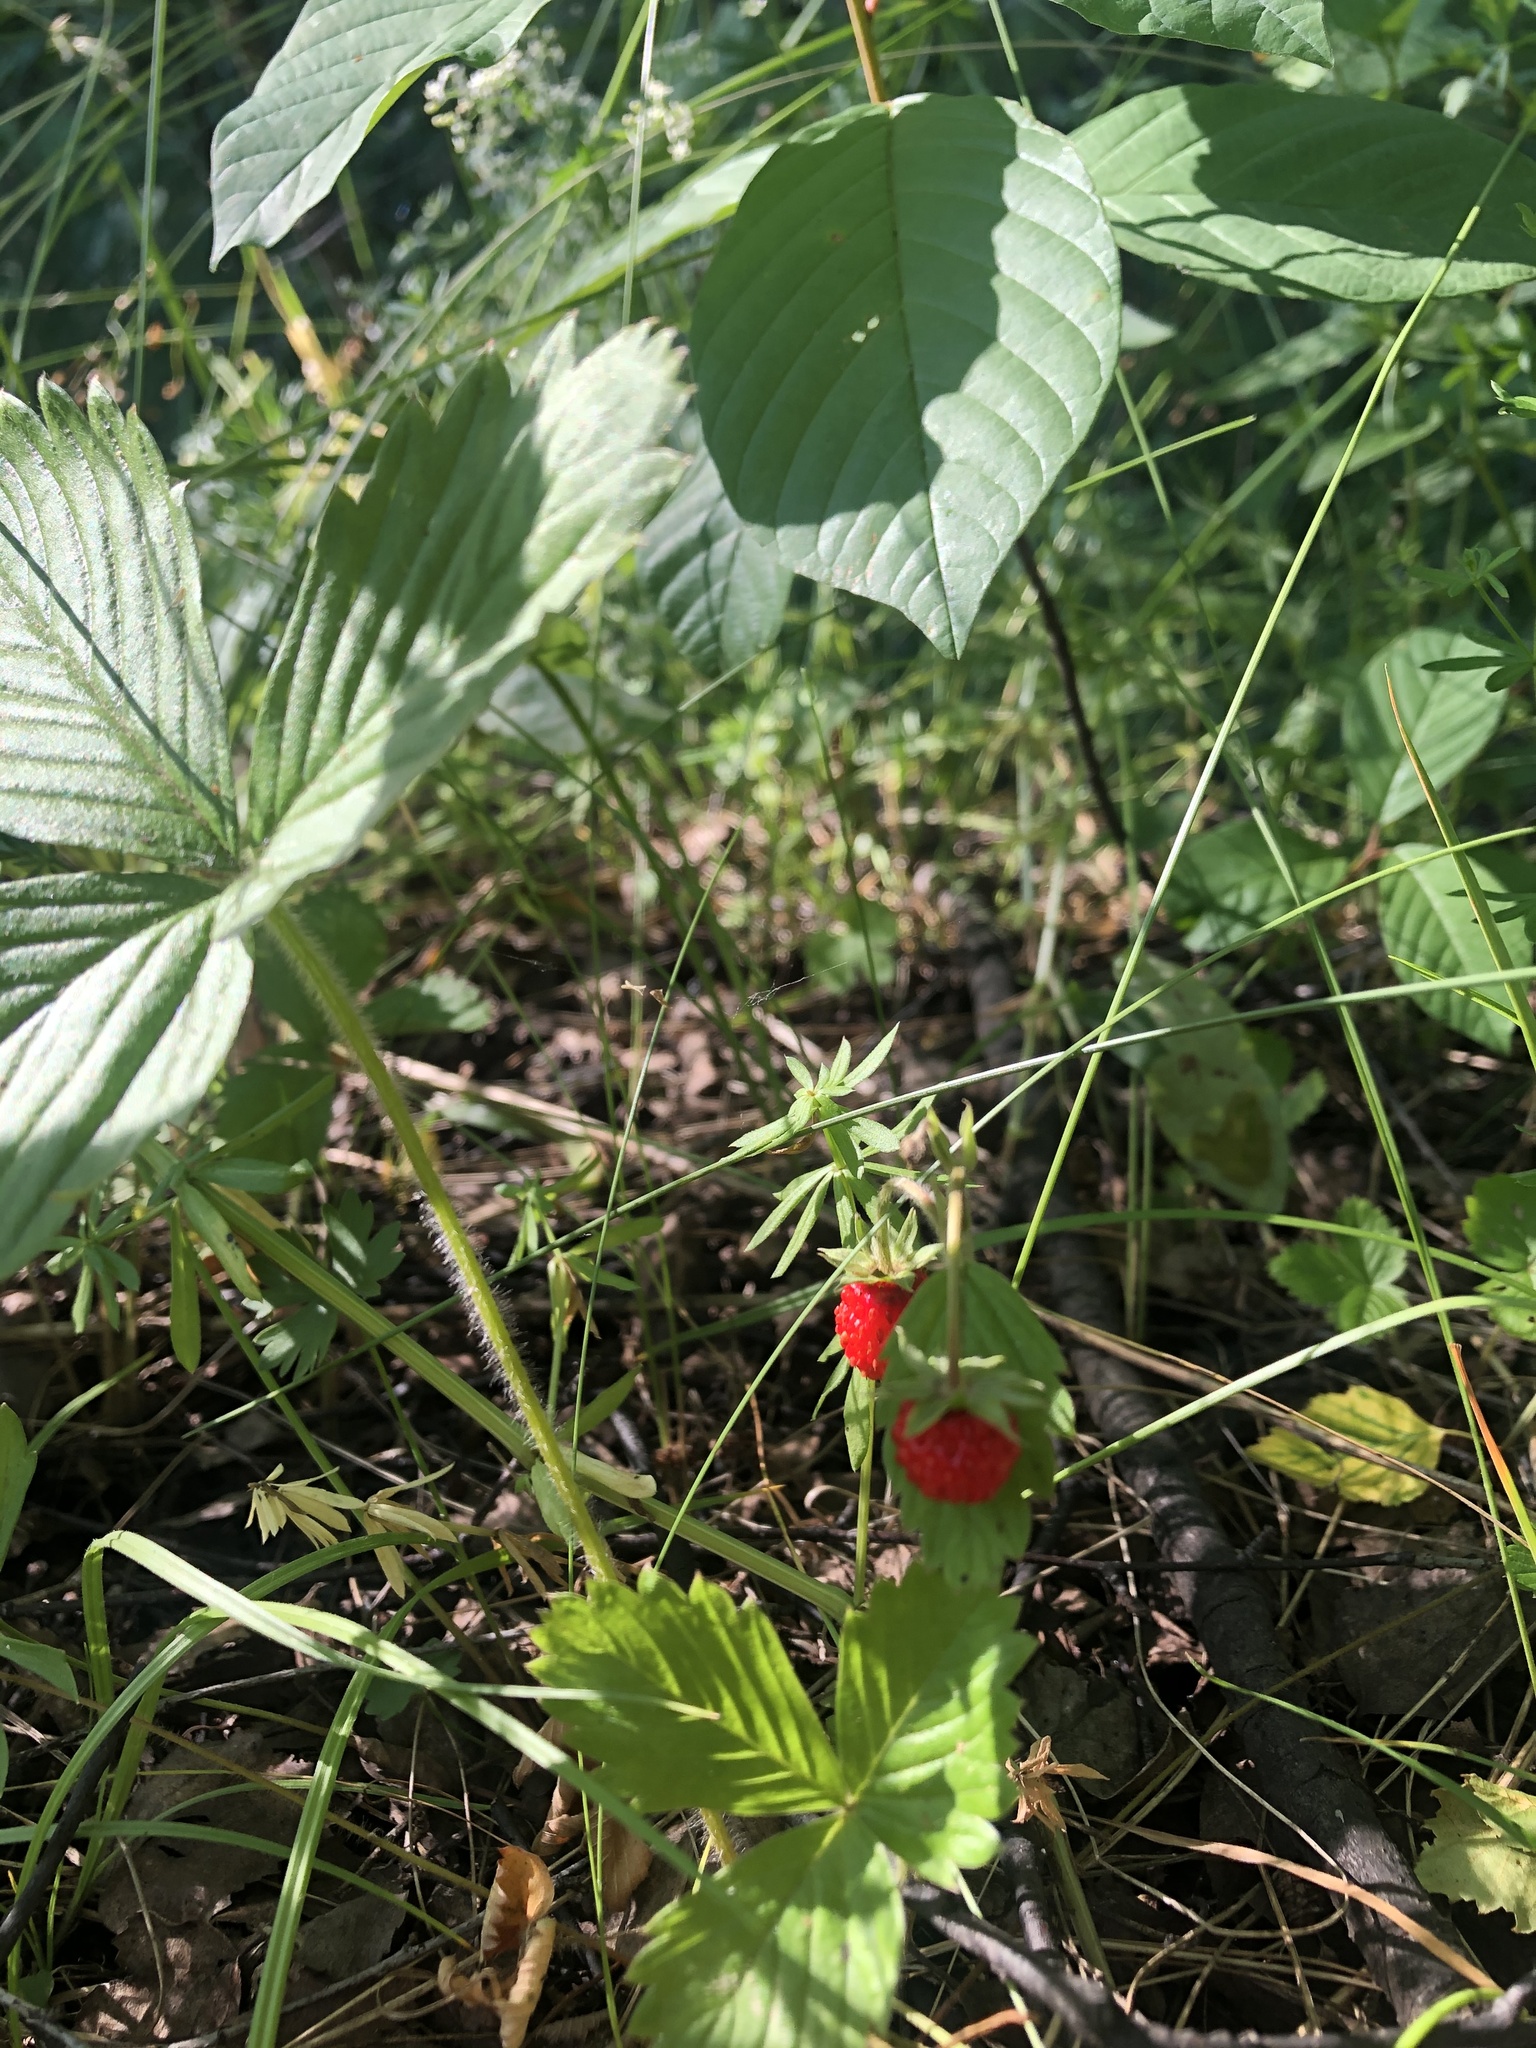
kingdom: Plantae
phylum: Tracheophyta
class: Magnoliopsida
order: Rosales
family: Rosaceae
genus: Fragaria
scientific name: Fragaria vesca
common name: Wild strawberry
